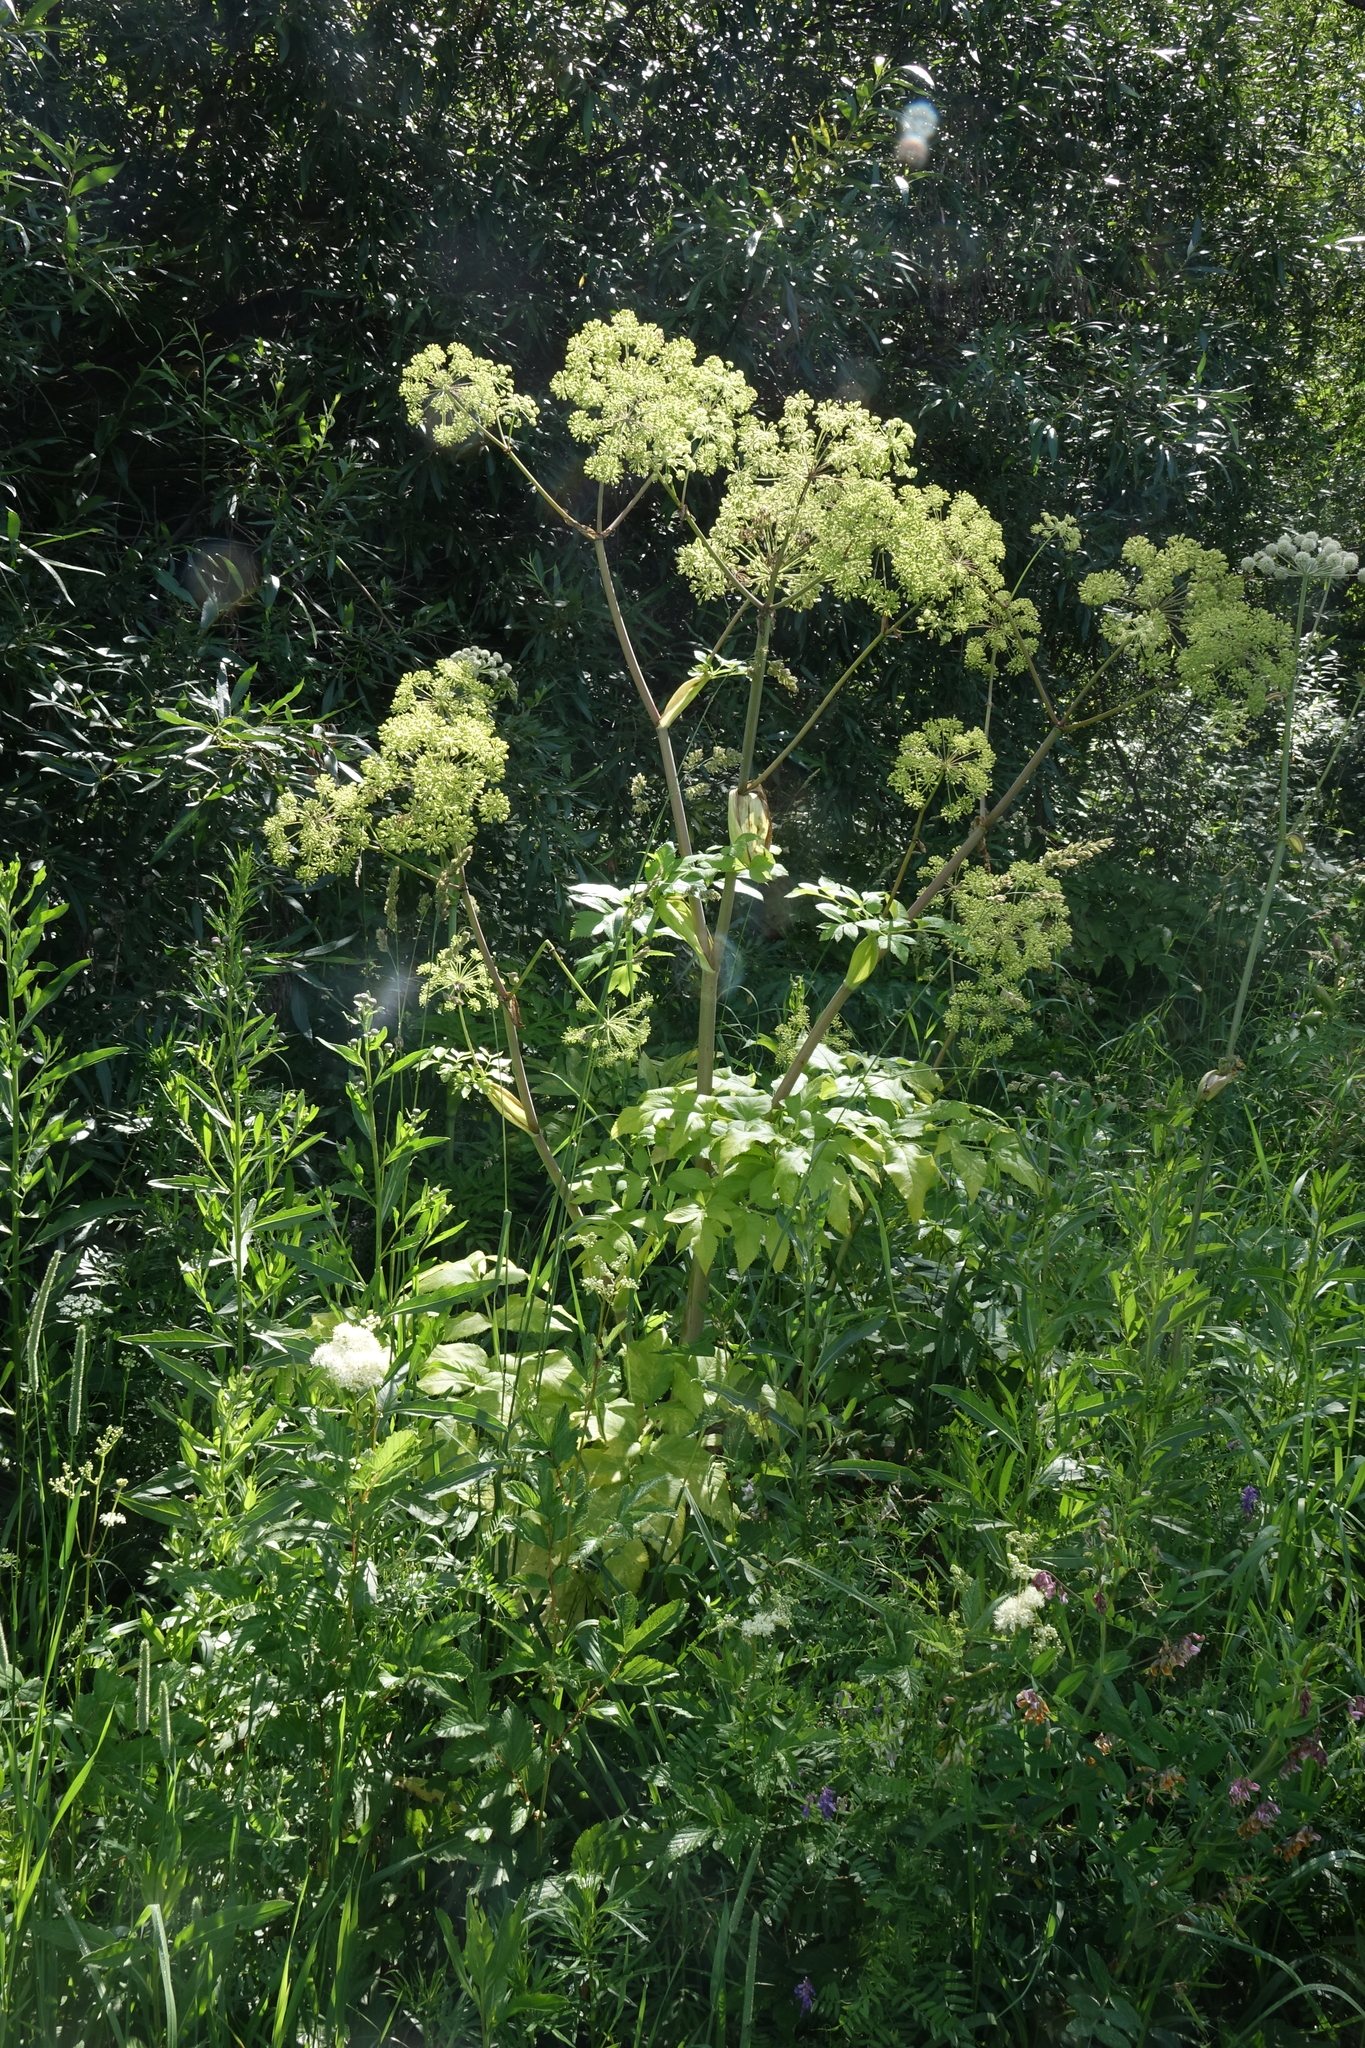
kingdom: Plantae
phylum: Tracheophyta
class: Magnoliopsida
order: Apiales
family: Apiaceae
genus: Angelica
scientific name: Angelica decurrens
